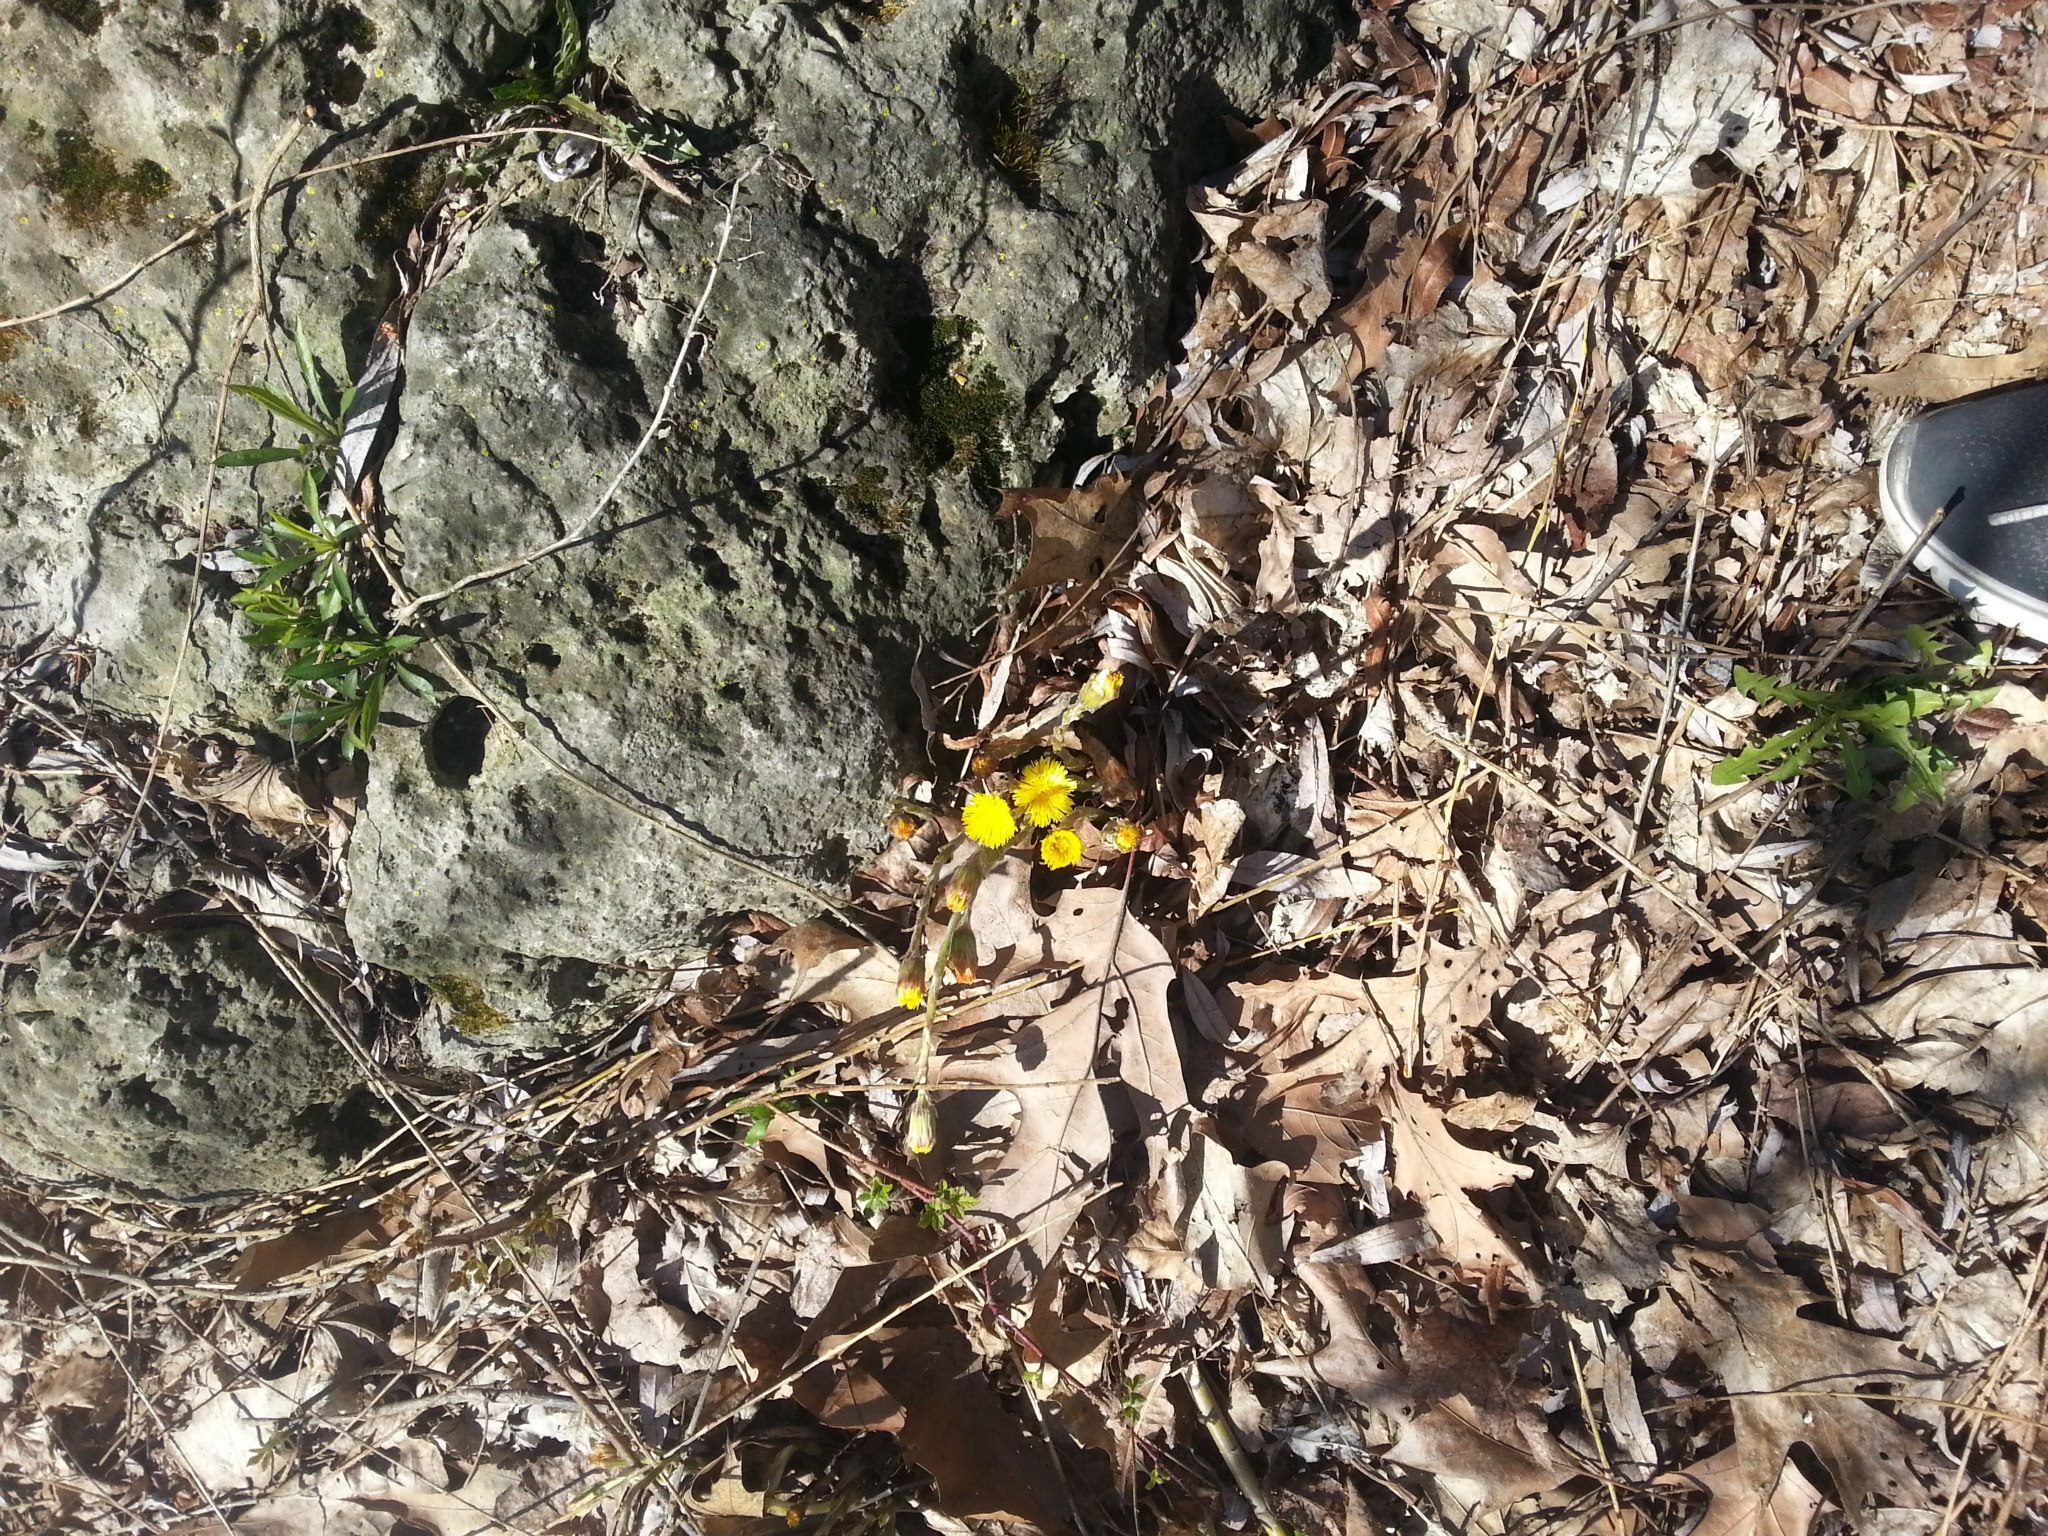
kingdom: Plantae
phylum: Tracheophyta
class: Magnoliopsida
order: Asterales
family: Asteraceae
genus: Tussilago
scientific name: Tussilago farfara
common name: Coltsfoot
